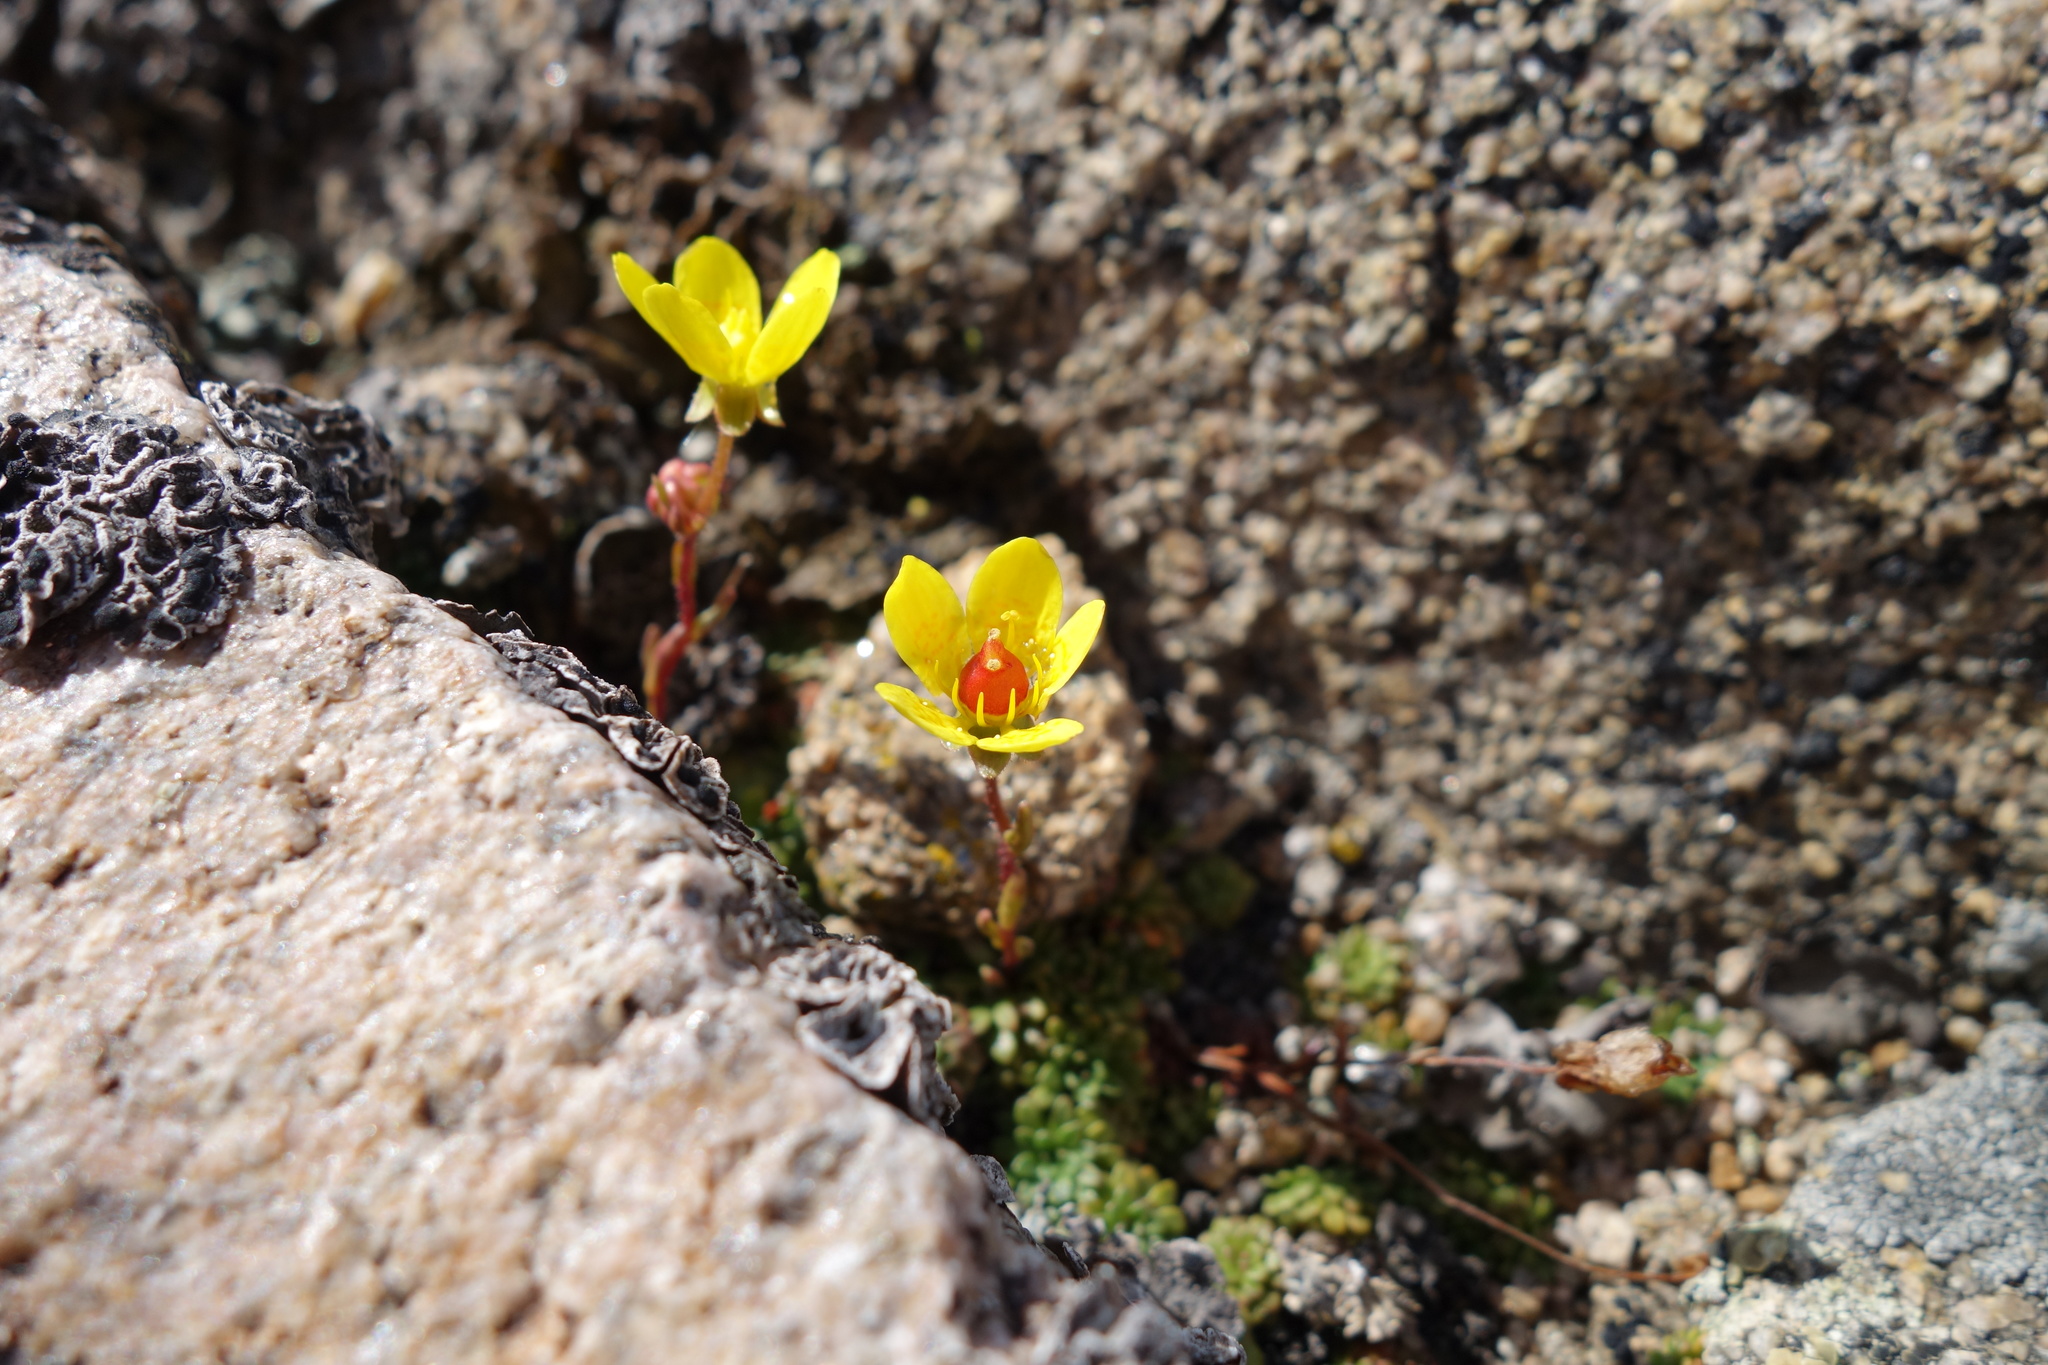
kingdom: Plantae
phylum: Tracheophyta
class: Magnoliopsida
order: Saxifragales
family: Saxifragaceae
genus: Saxifraga
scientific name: Saxifraga chrysantha
